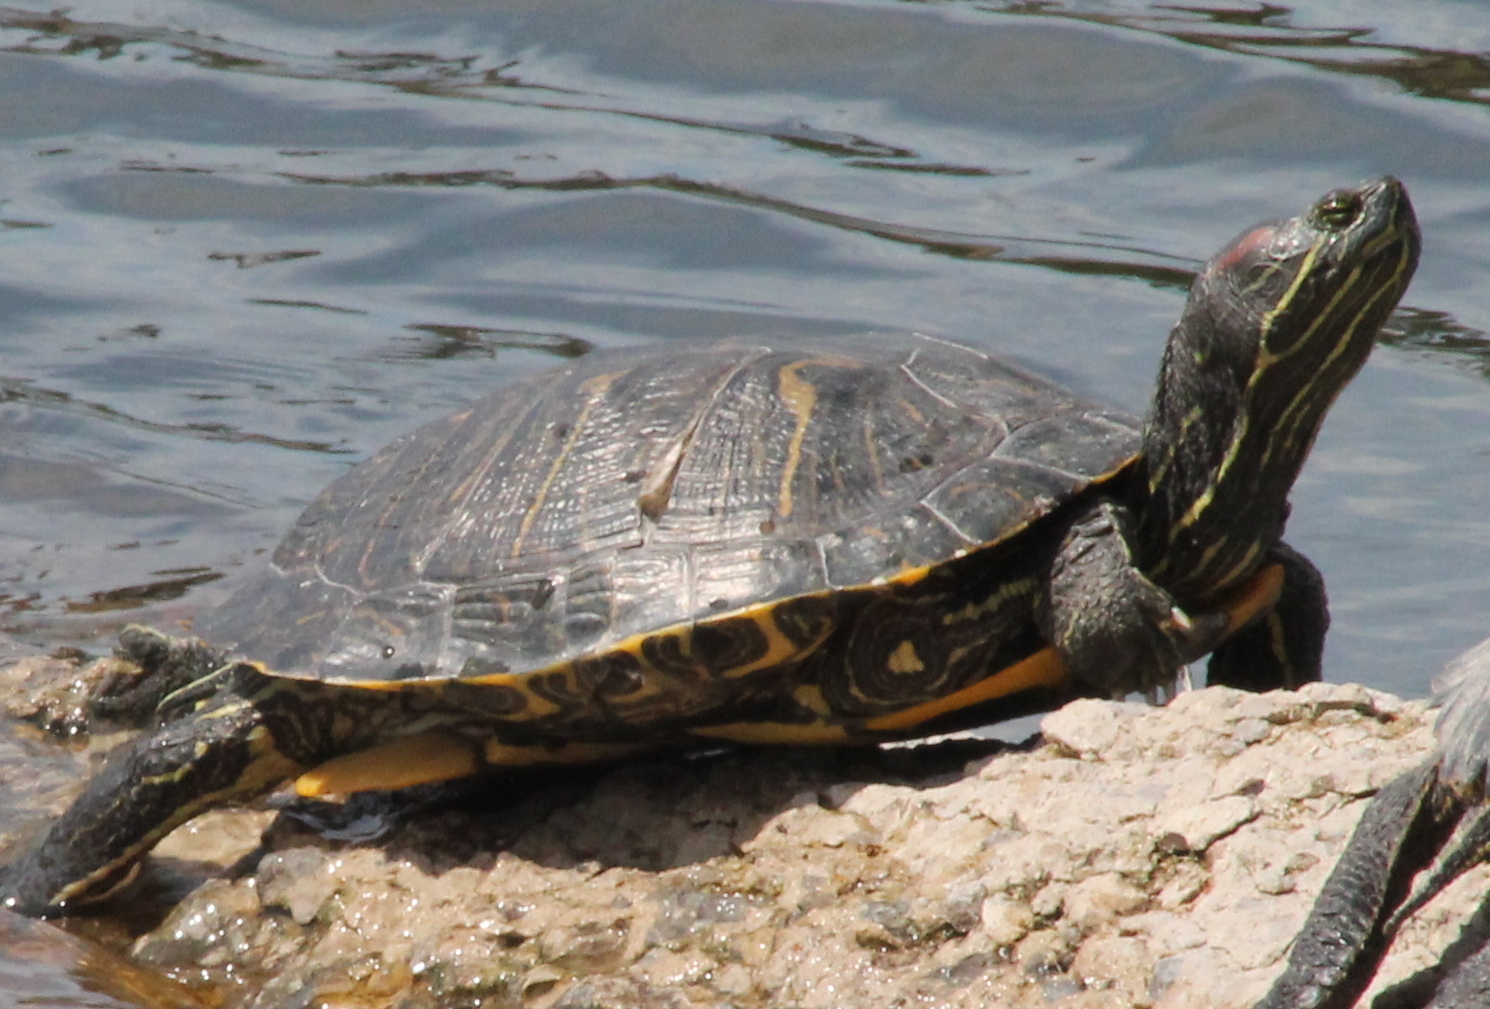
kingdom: Animalia
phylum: Chordata
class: Testudines
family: Emydidae
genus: Trachemys
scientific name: Trachemys scripta
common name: Slider
